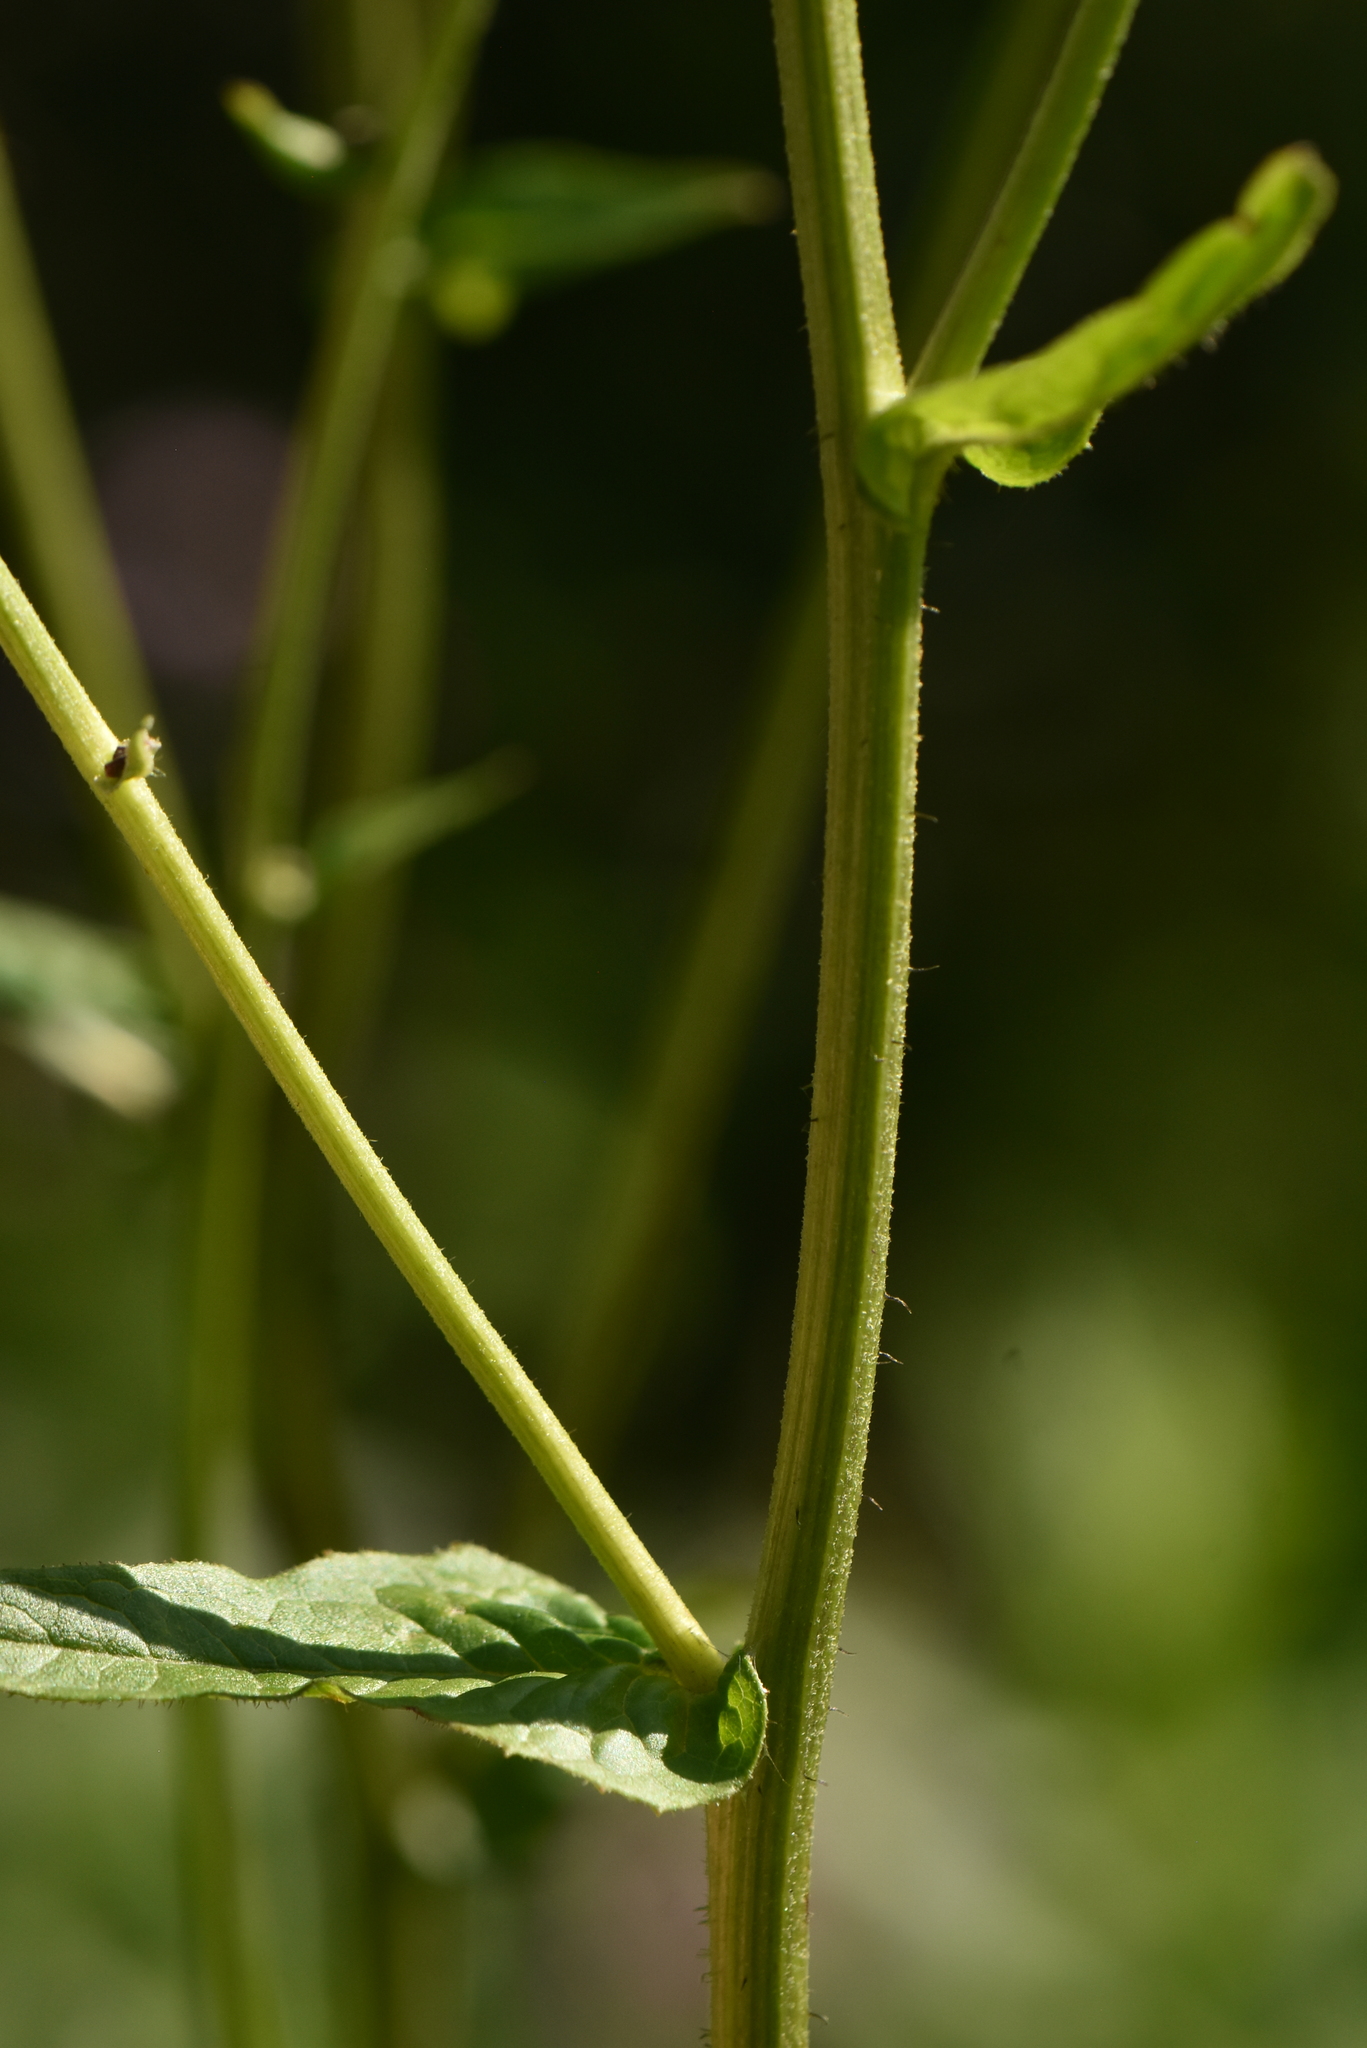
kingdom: Plantae
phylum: Tracheophyta
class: Magnoliopsida
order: Asterales
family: Asteraceae
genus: Crepis
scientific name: Crepis sibirica
